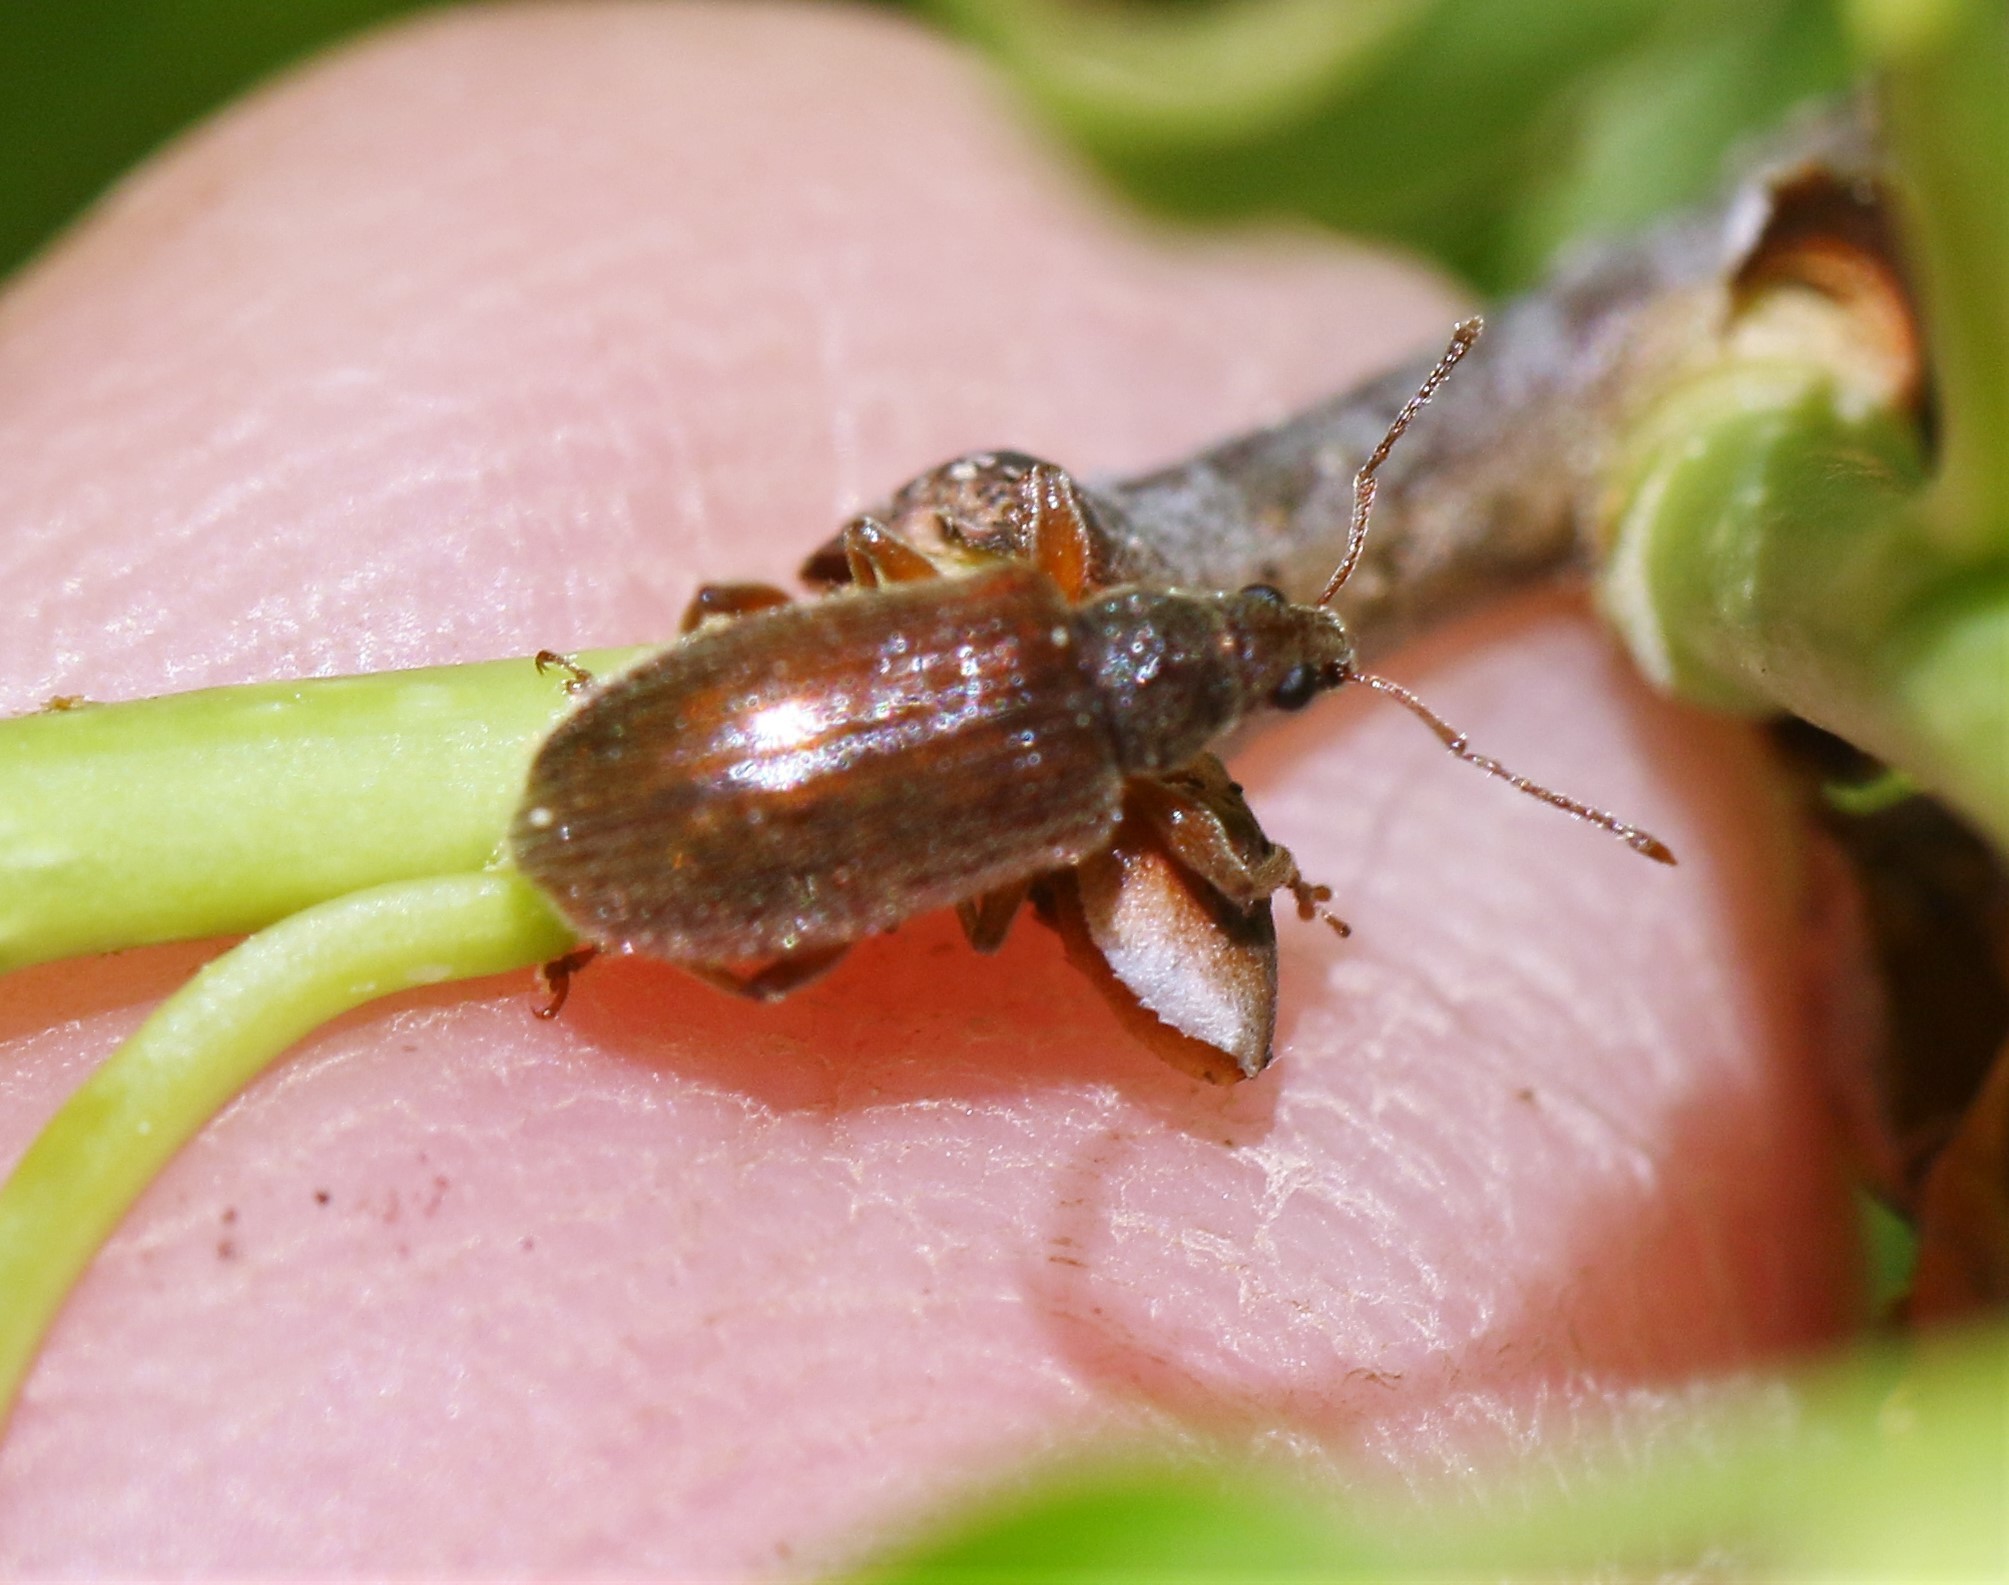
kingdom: Animalia
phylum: Arthropoda
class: Insecta
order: Coleoptera
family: Curculionidae
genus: Phyllobius
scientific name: Phyllobius oblongus
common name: Brown leaf weevil
